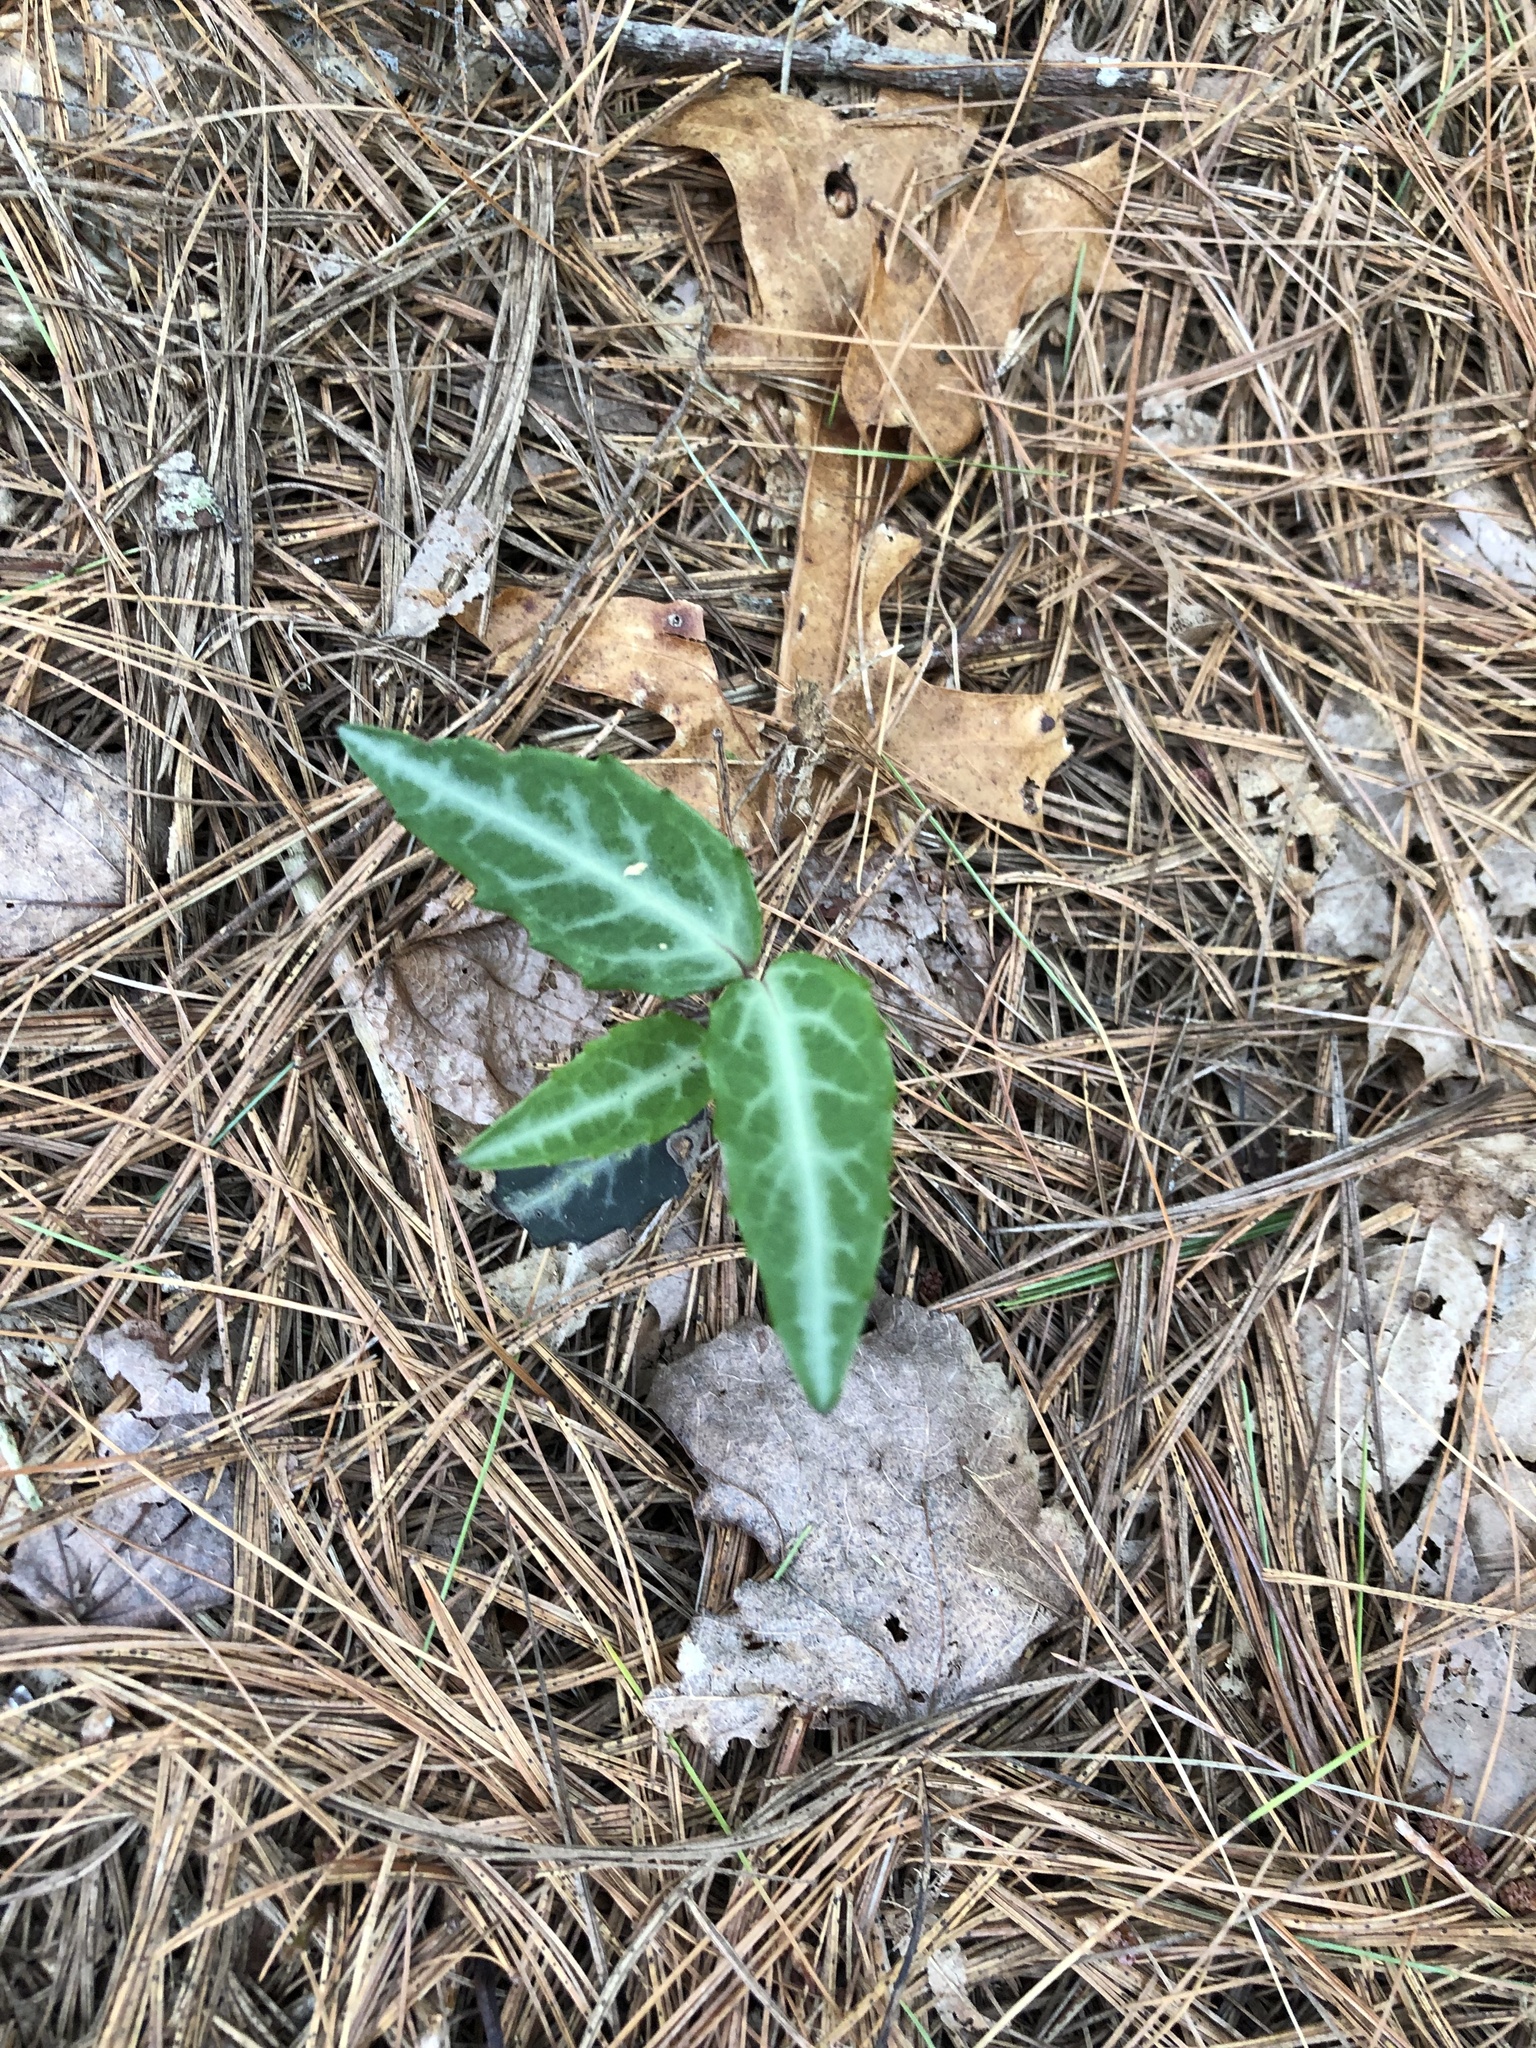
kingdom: Plantae
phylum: Tracheophyta
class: Magnoliopsida
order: Ericales
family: Ericaceae
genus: Chimaphila
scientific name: Chimaphila maculata
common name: Spotted pipsissewa
